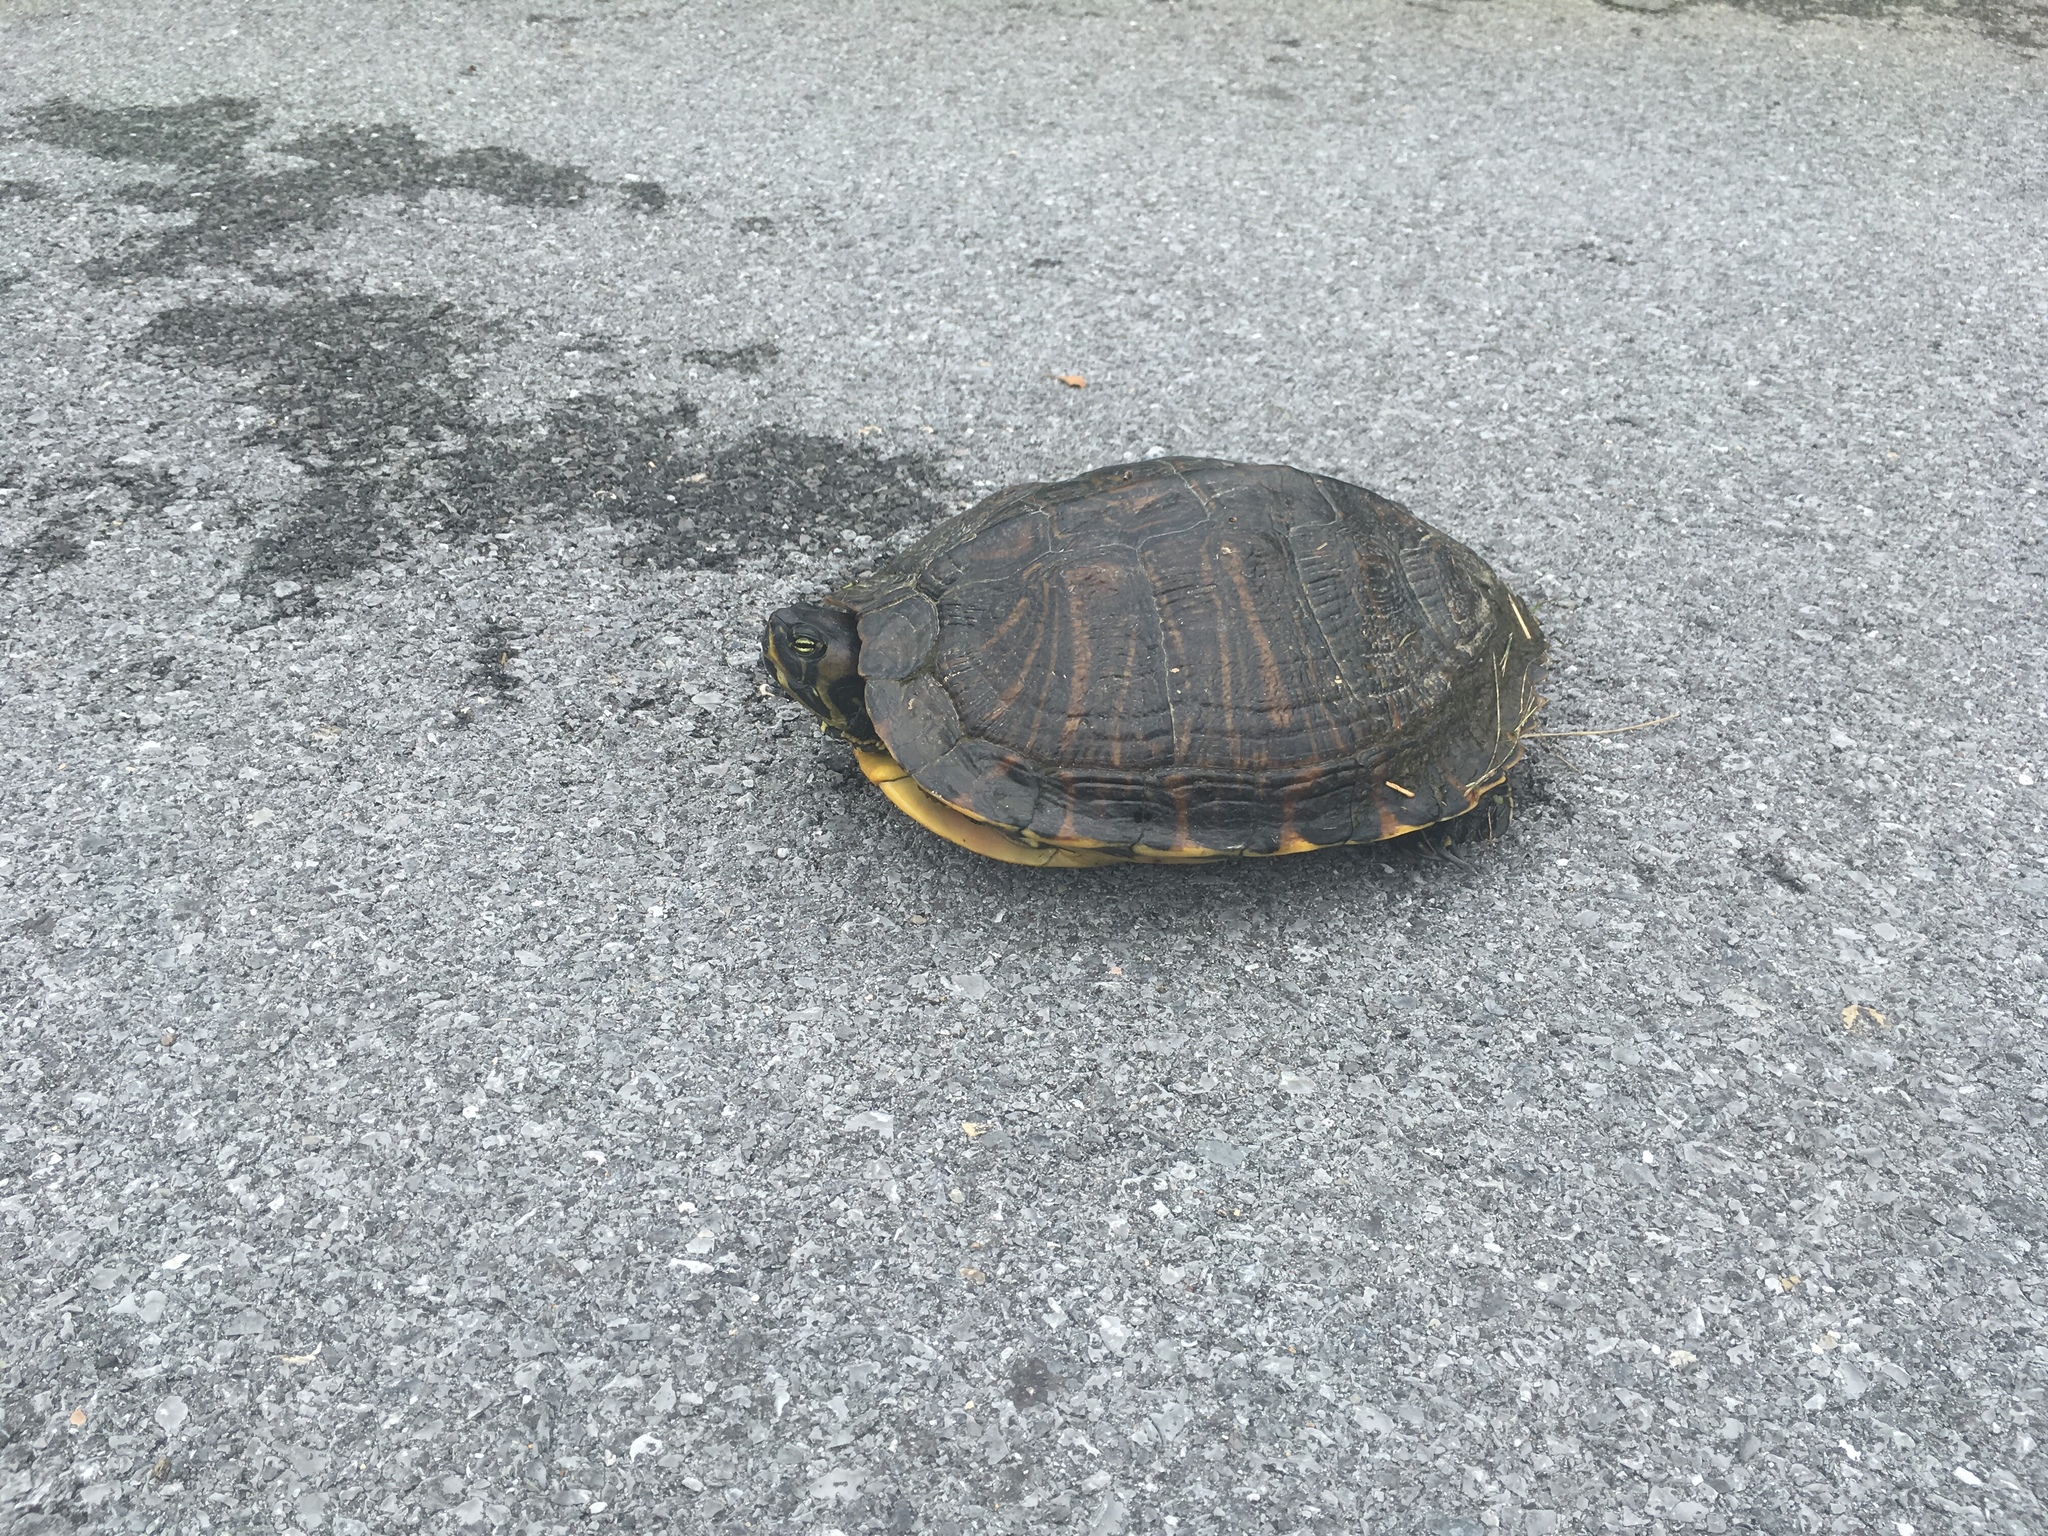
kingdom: Animalia
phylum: Chordata
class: Testudines
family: Emydidae
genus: Trachemys
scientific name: Trachemys scripta
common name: Slider
